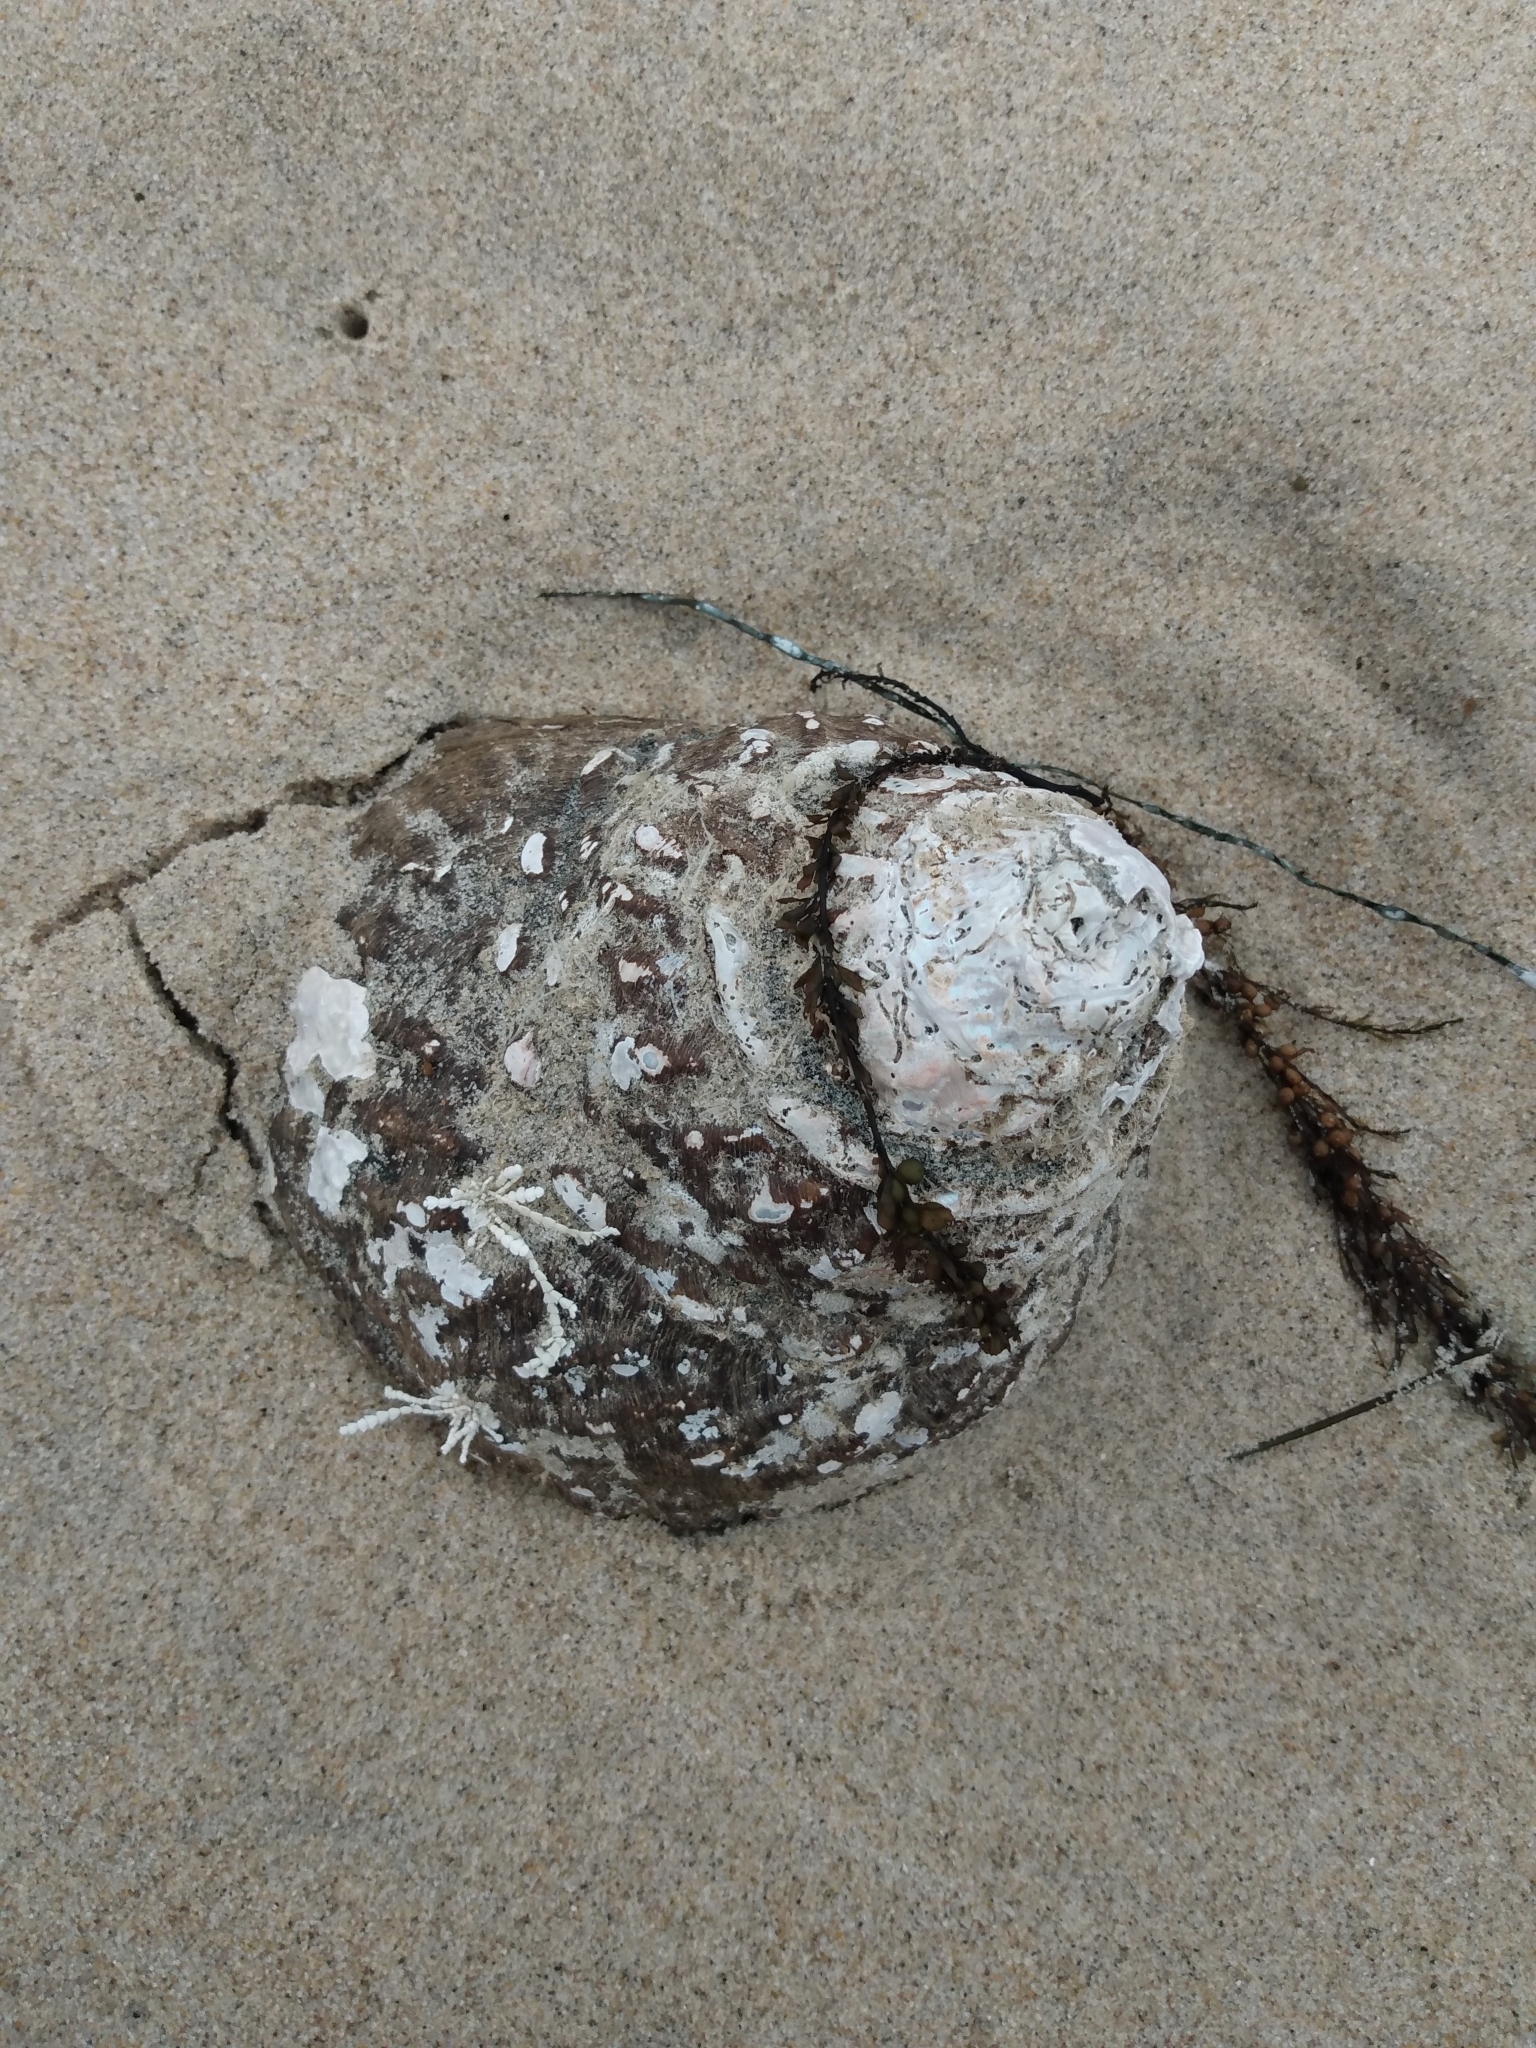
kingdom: Animalia
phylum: Mollusca
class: Gastropoda
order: Trochida
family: Turbinidae
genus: Megastraea
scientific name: Megastraea undosa
